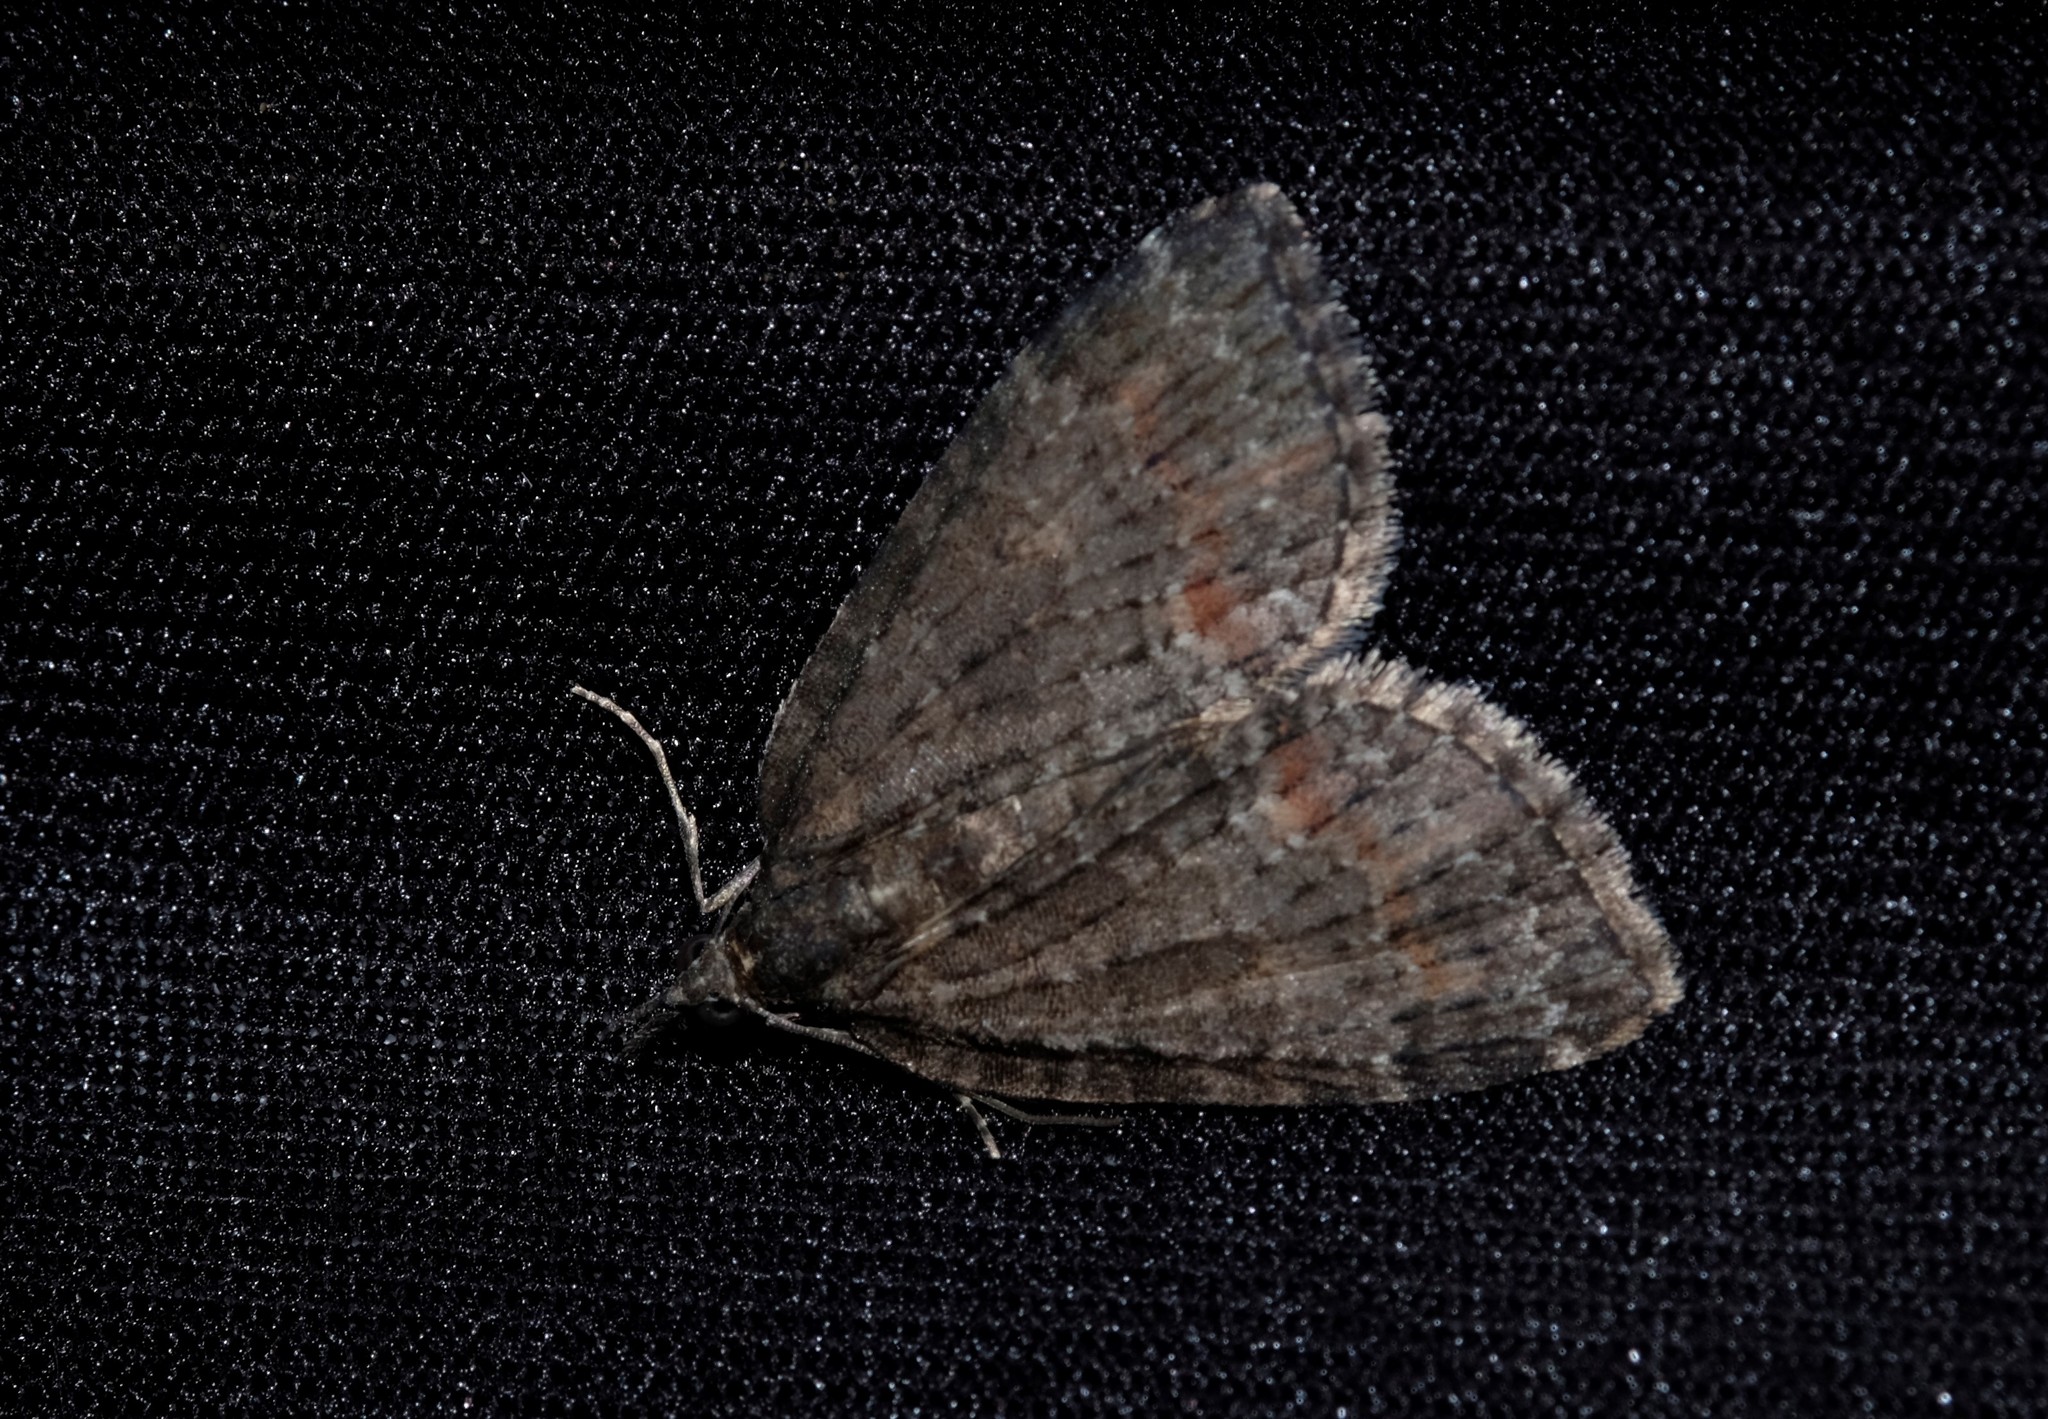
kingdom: Animalia
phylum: Arthropoda
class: Insecta
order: Lepidoptera
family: Geometridae
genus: Microdes
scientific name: Microdes squamulata
